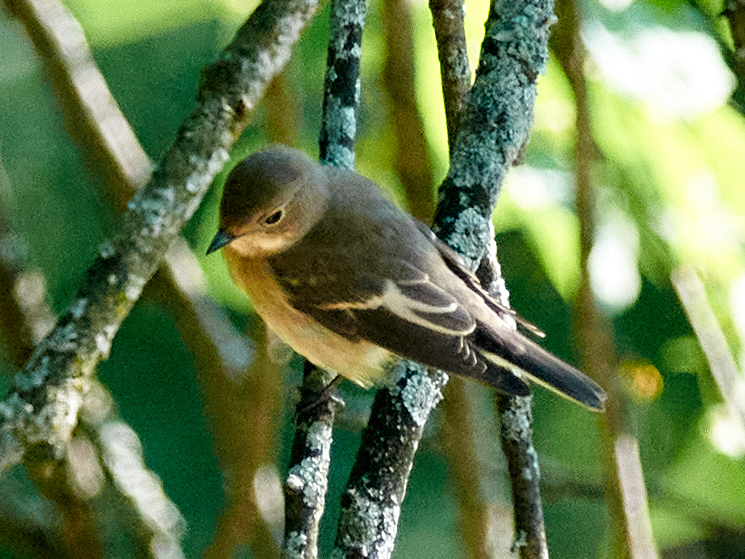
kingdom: Animalia
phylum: Chordata
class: Aves
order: Passeriformes
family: Muscicapidae
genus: Ficedula
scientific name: Ficedula hypoleuca
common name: European pied flycatcher
